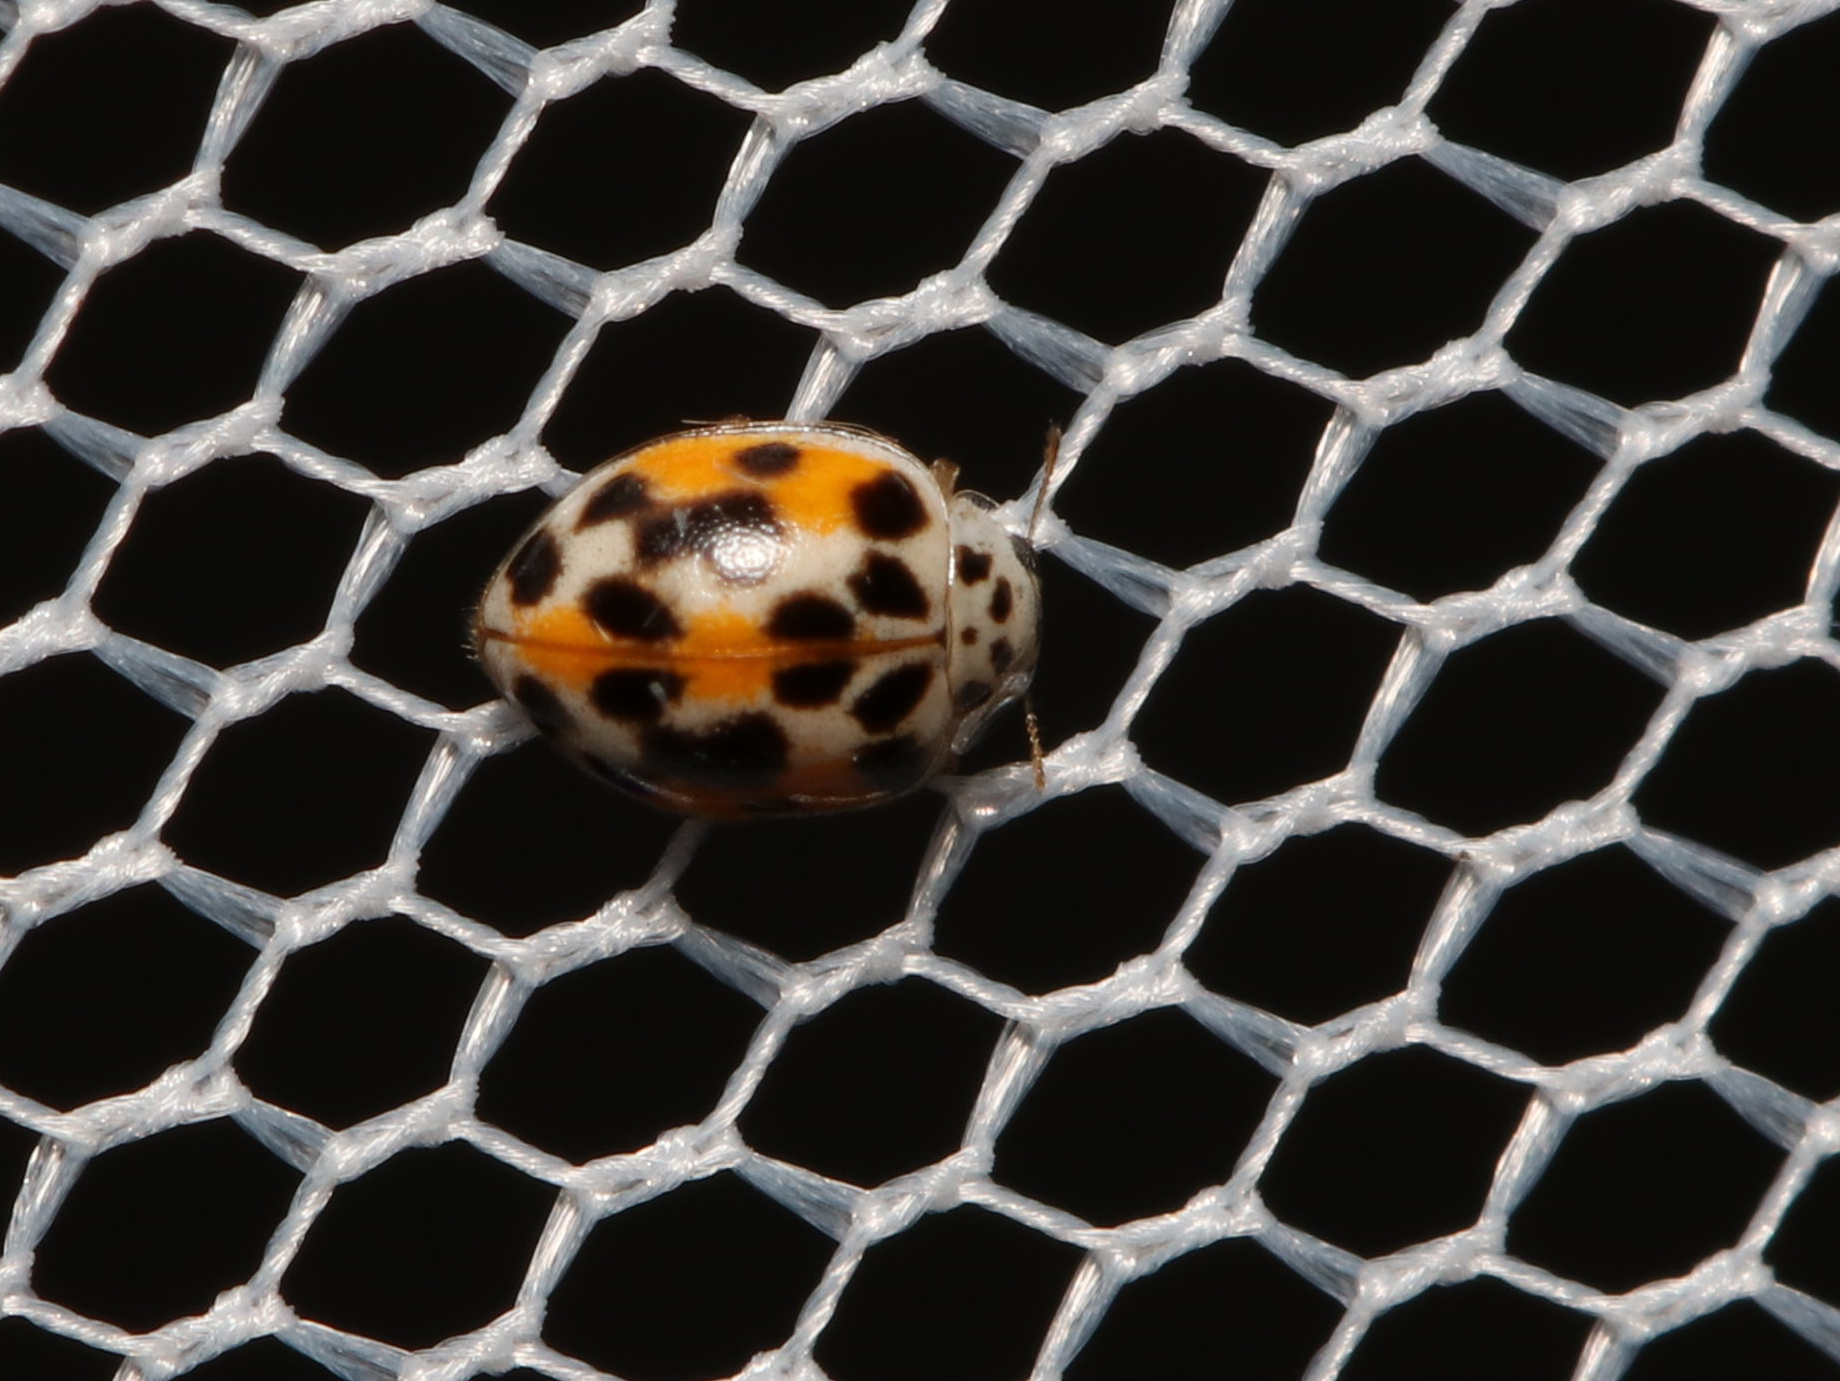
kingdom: Animalia
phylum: Arthropoda
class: Insecta
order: Coleoptera
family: Coccinellidae
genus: Psyllobora
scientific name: Psyllobora vigintimaculata
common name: Ladybird beetle
